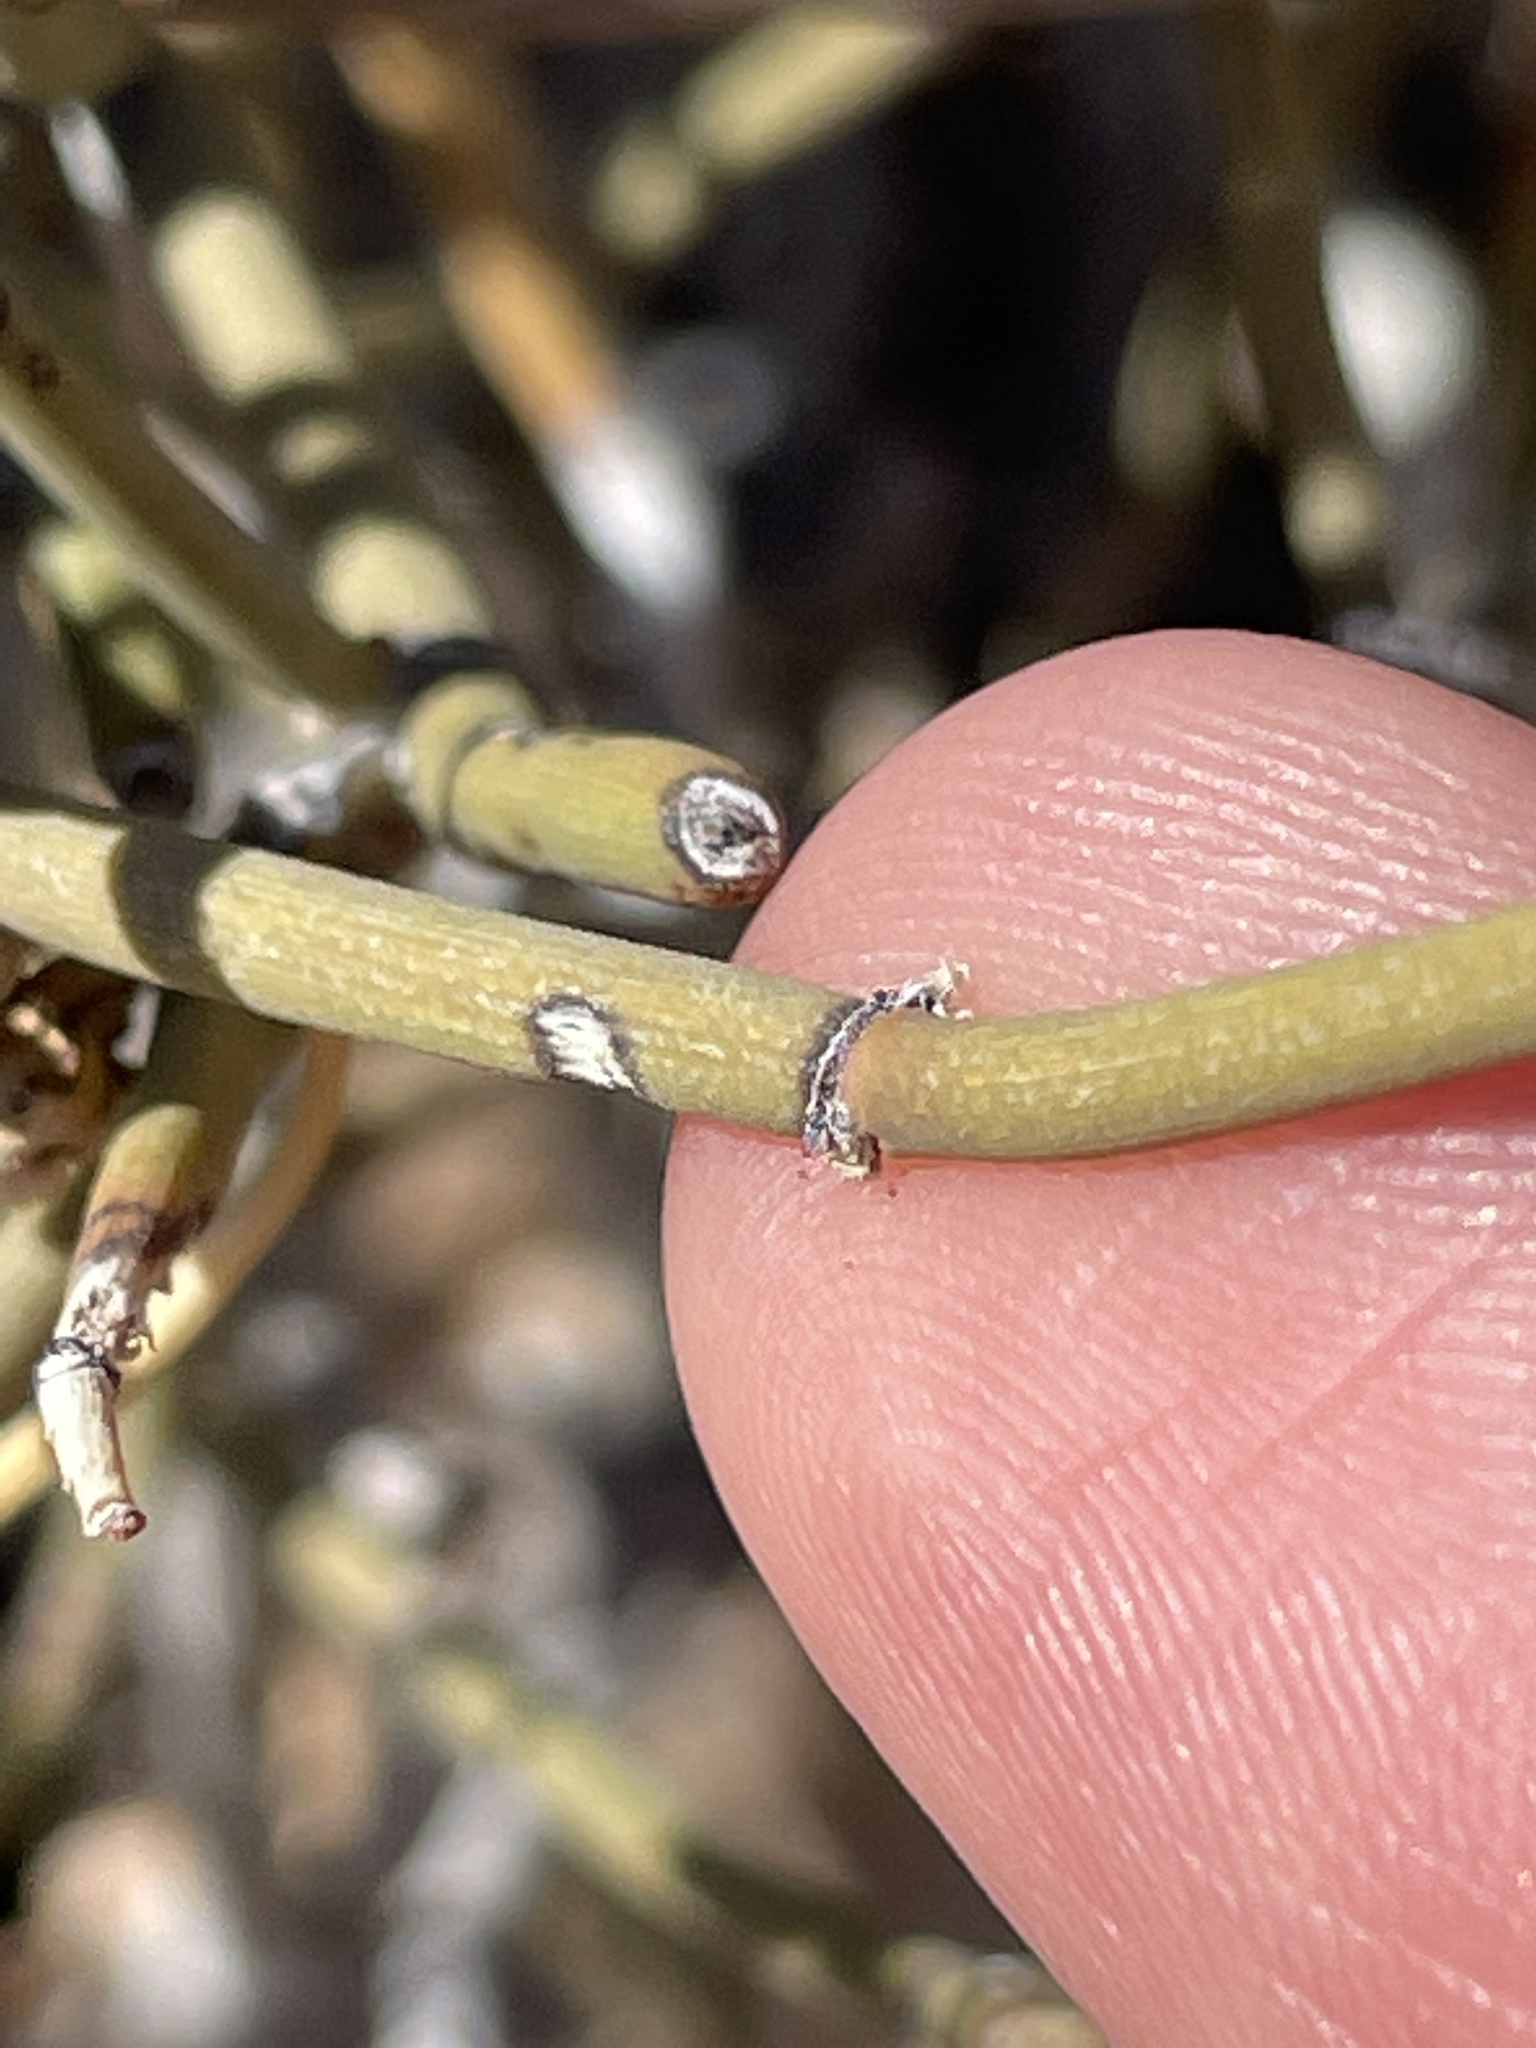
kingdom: Plantae
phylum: Tracheophyta
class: Gnetopsida
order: Ephedrales
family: Ephedraceae
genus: Ephedra
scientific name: Ephedra nevadensis
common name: Gray ephedra
